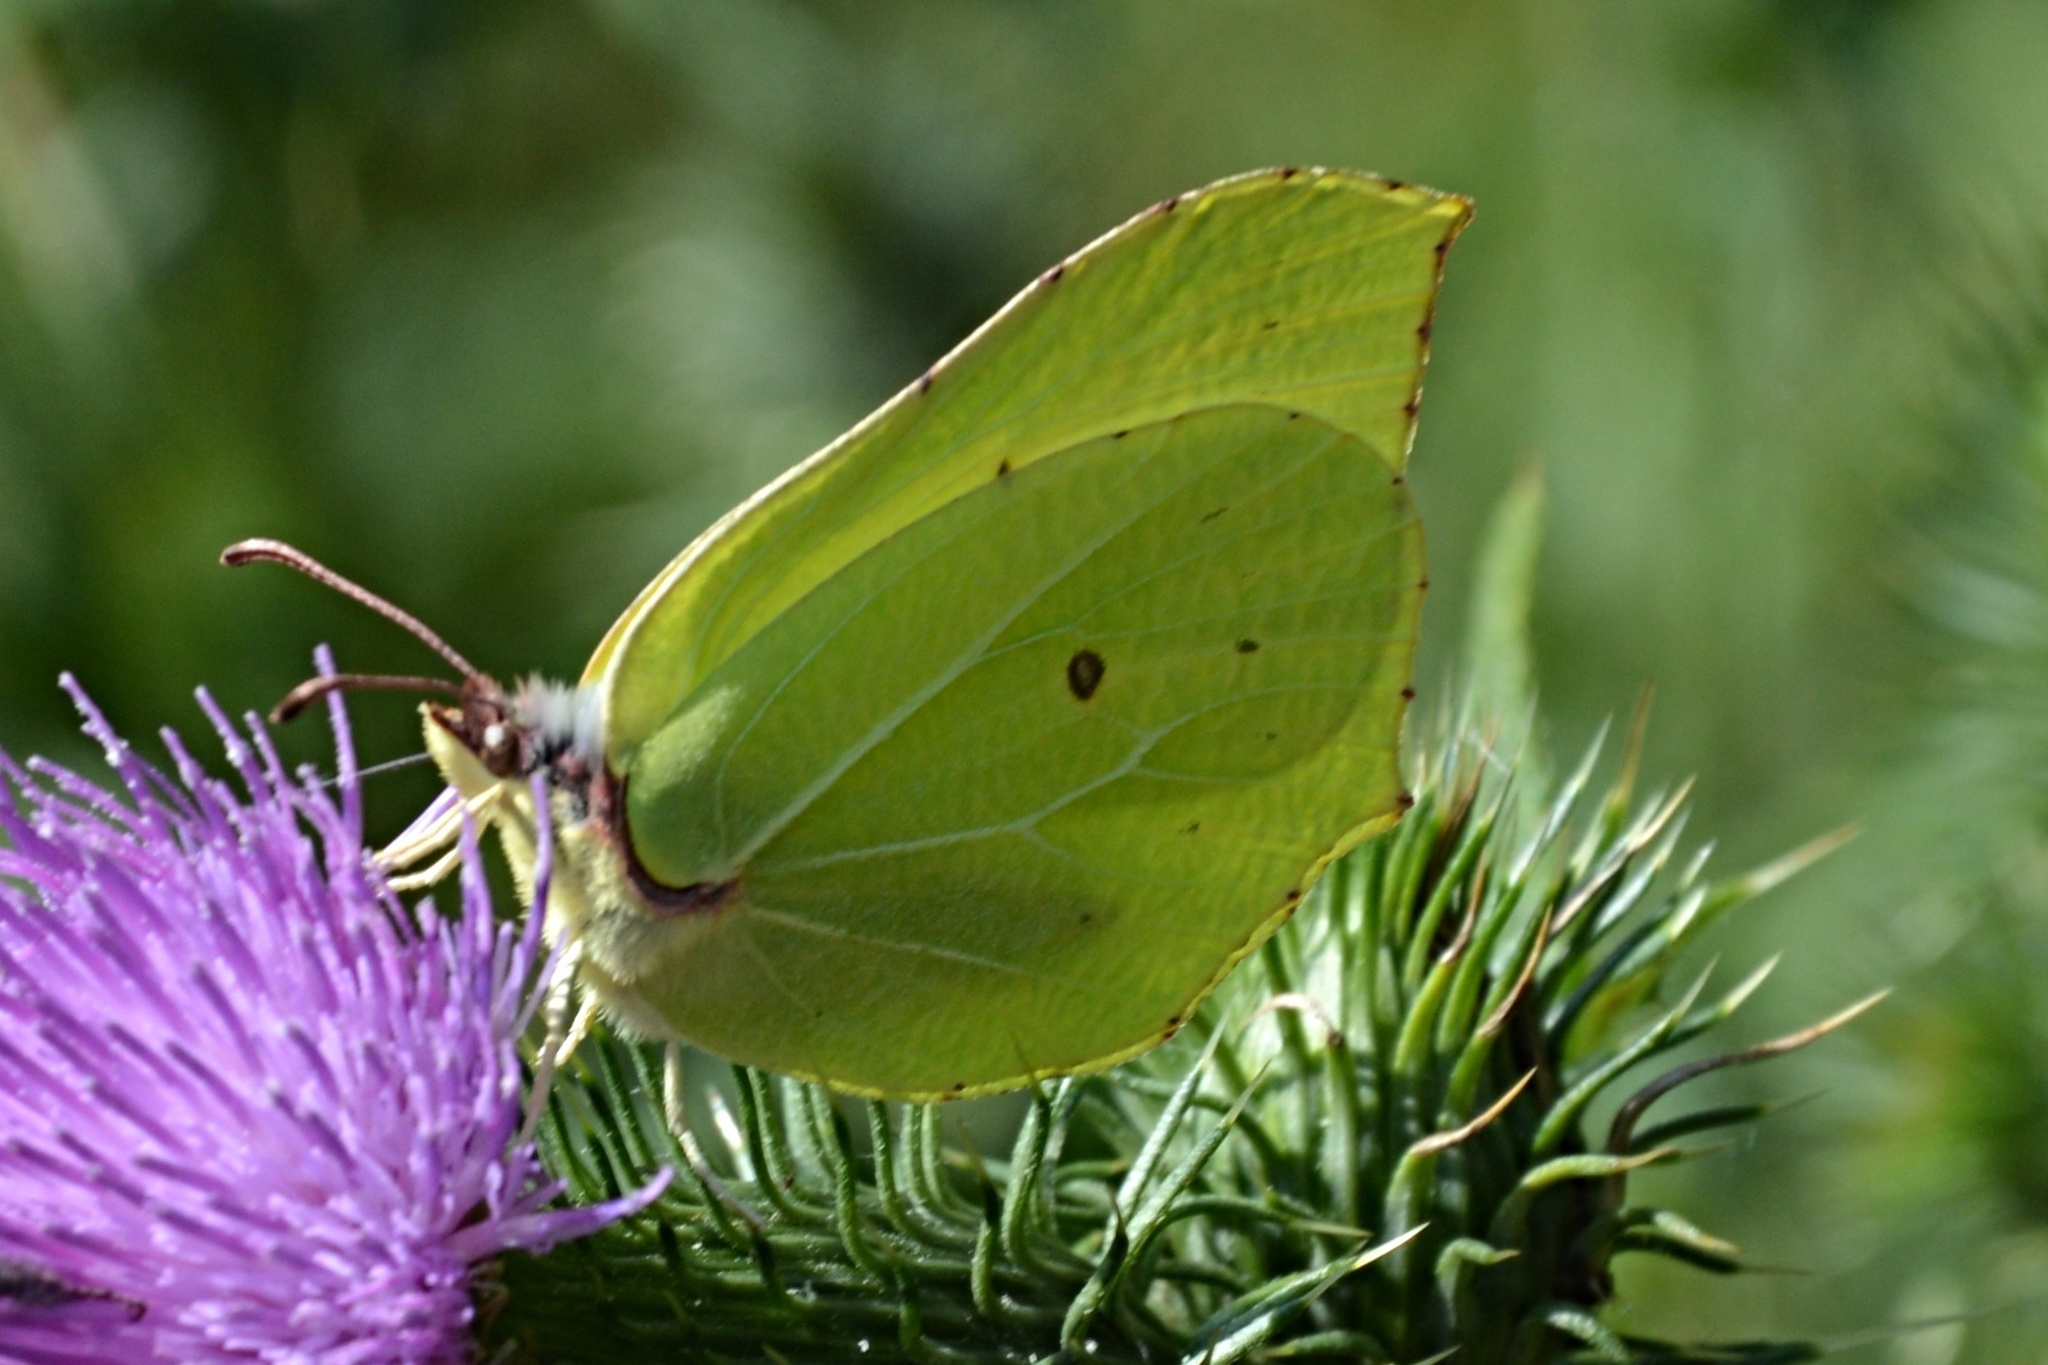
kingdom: Animalia
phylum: Arthropoda
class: Insecta
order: Lepidoptera
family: Pieridae
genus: Gonepteryx
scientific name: Gonepteryx rhamni
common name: Brimstone
